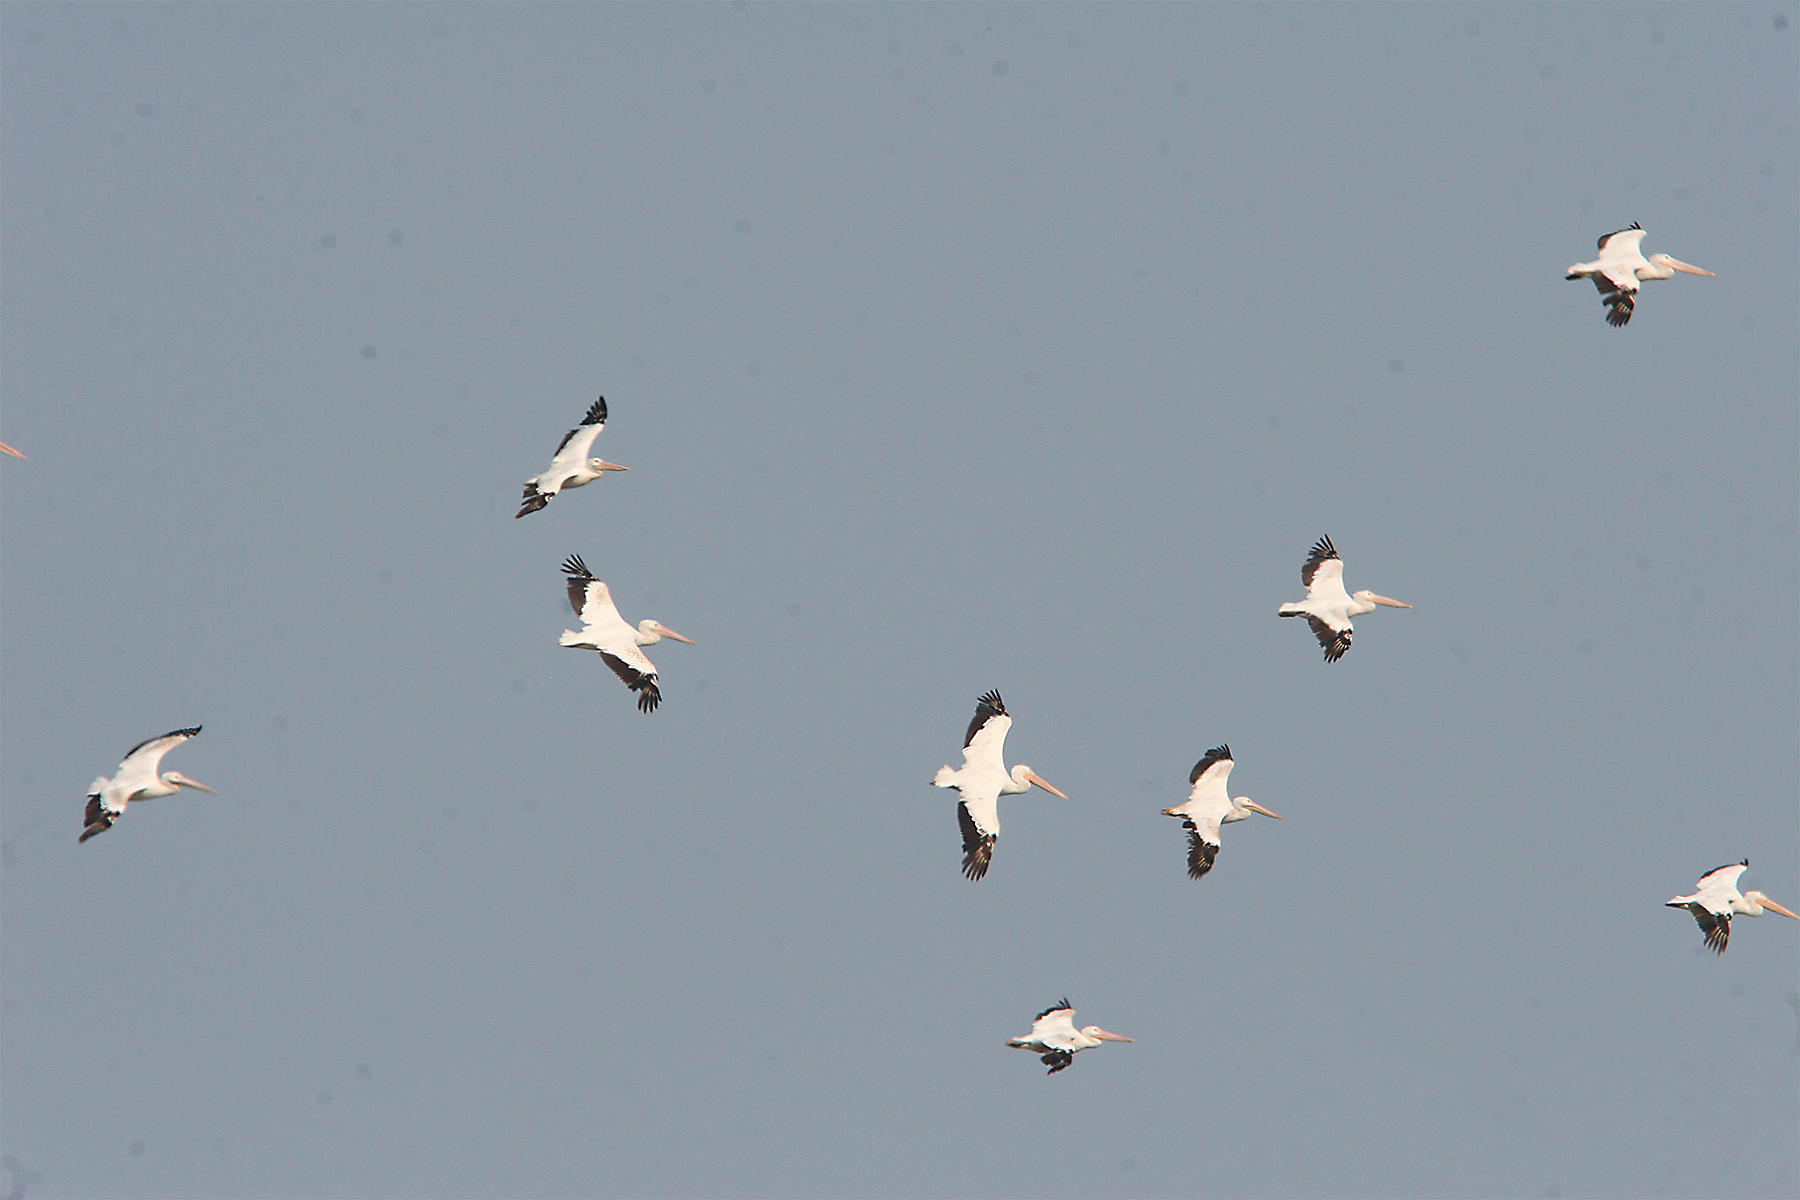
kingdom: Animalia
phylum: Chordata
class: Aves
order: Pelecaniformes
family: Pelecanidae
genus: Pelecanus
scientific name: Pelecanus erythrorhynchos
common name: American white pelican
